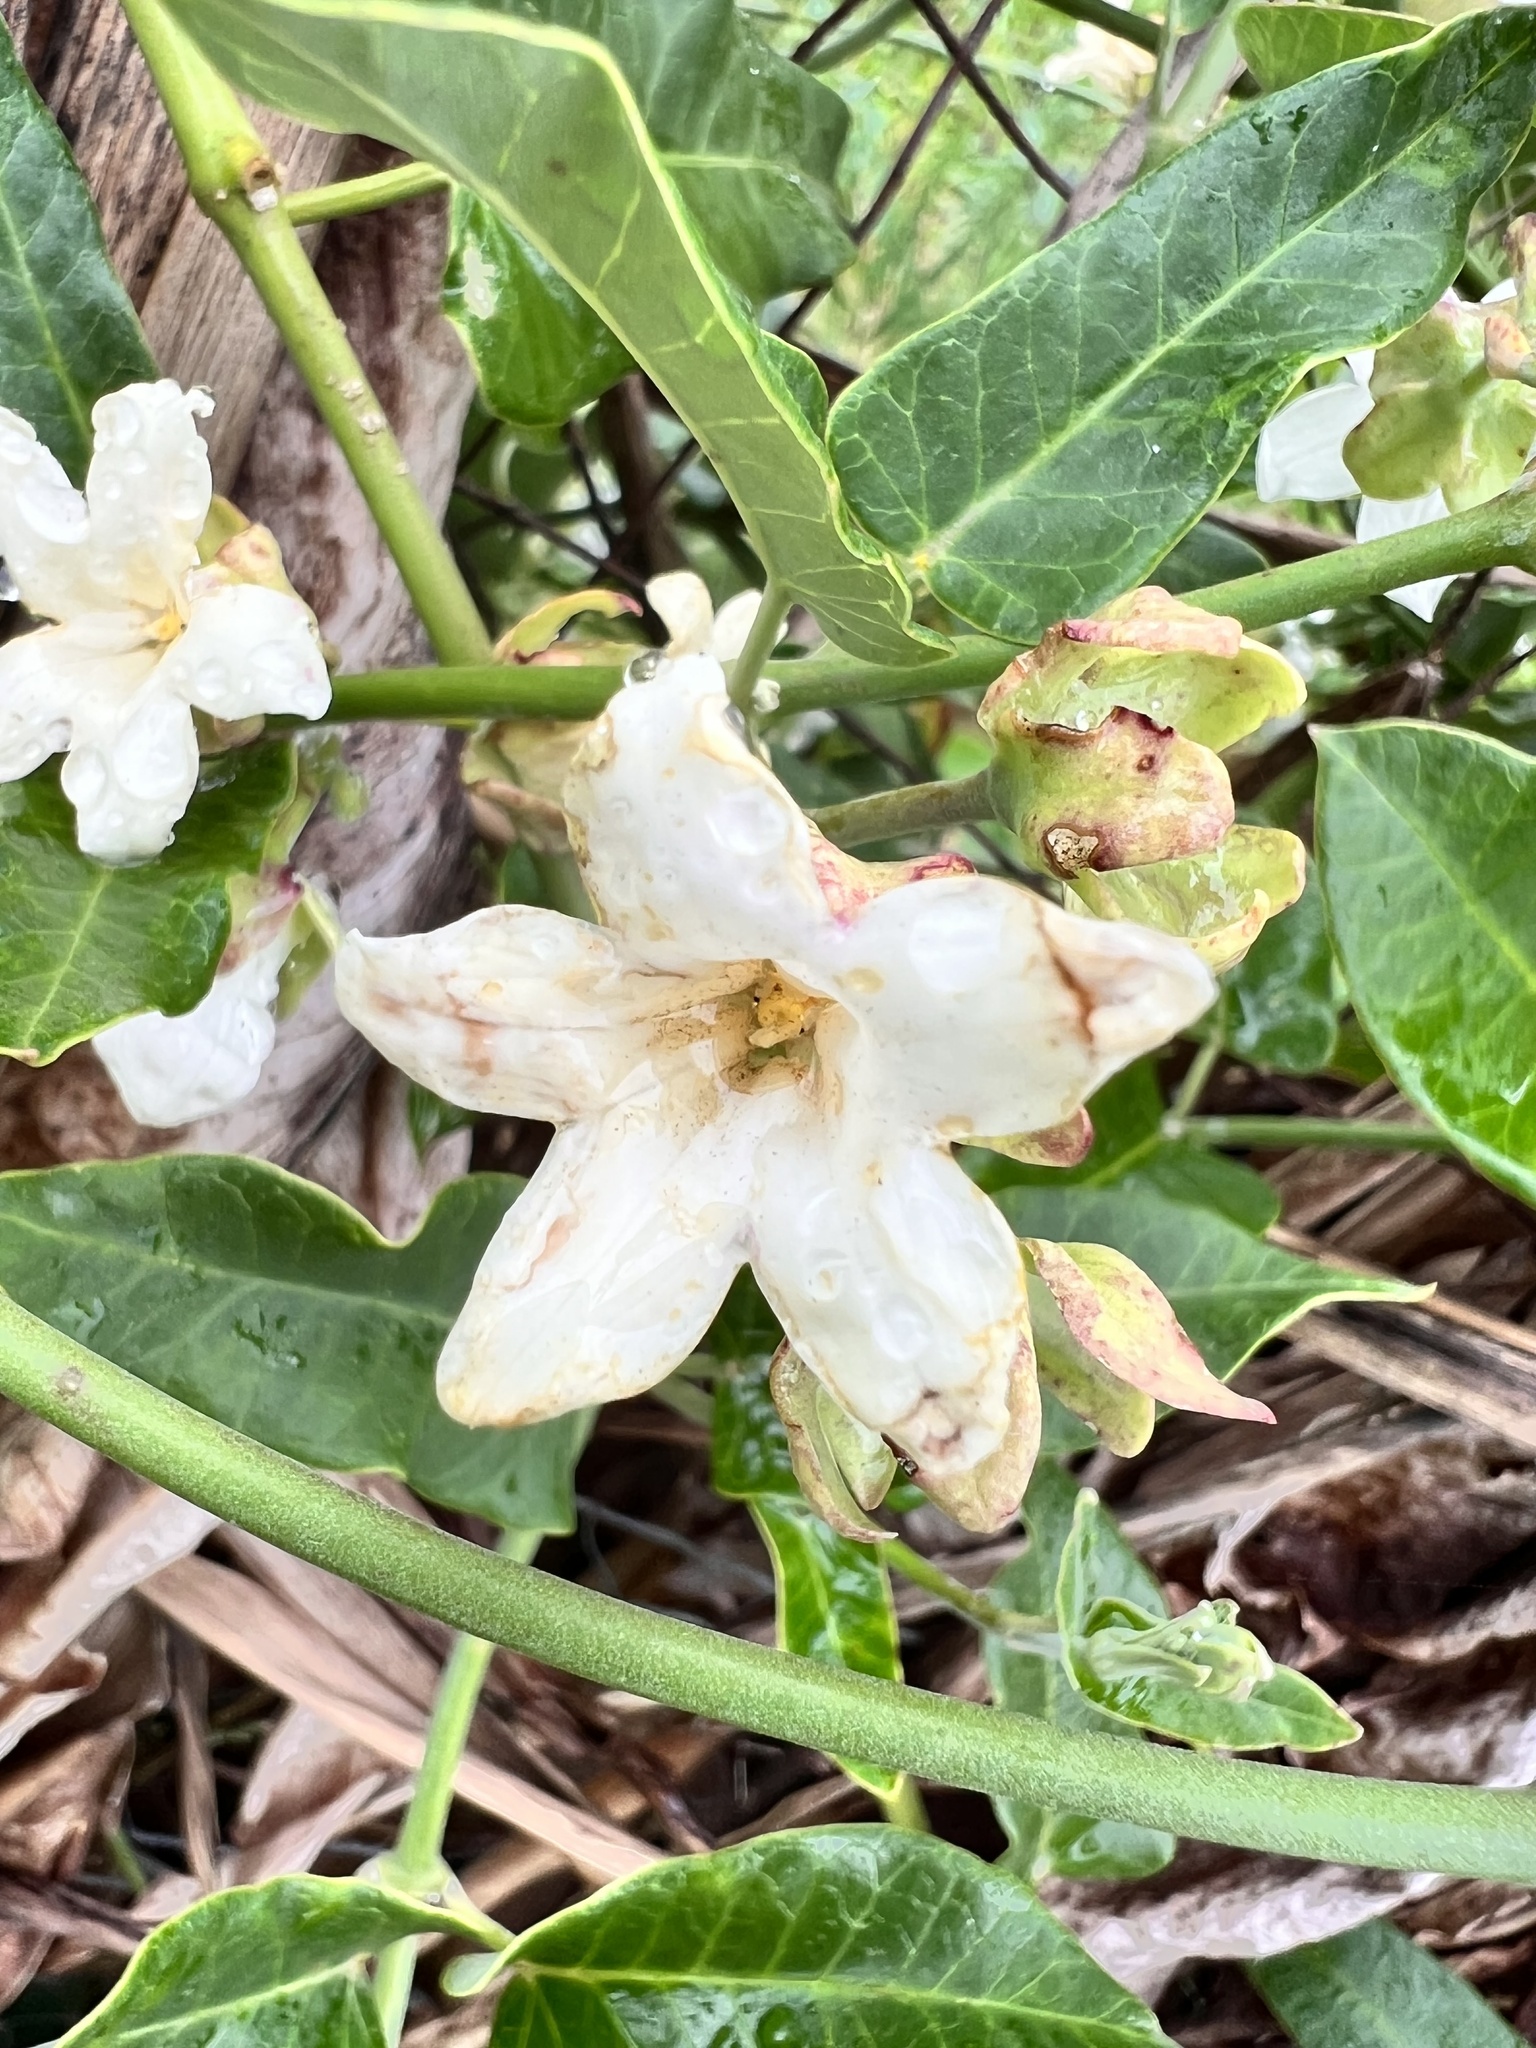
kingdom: Plantae
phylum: Tracheophyta
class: Magnoliopsida
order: Gentianales
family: Apocynaceae
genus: Araujia
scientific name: Araujia sericifera
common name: White bladderflower
